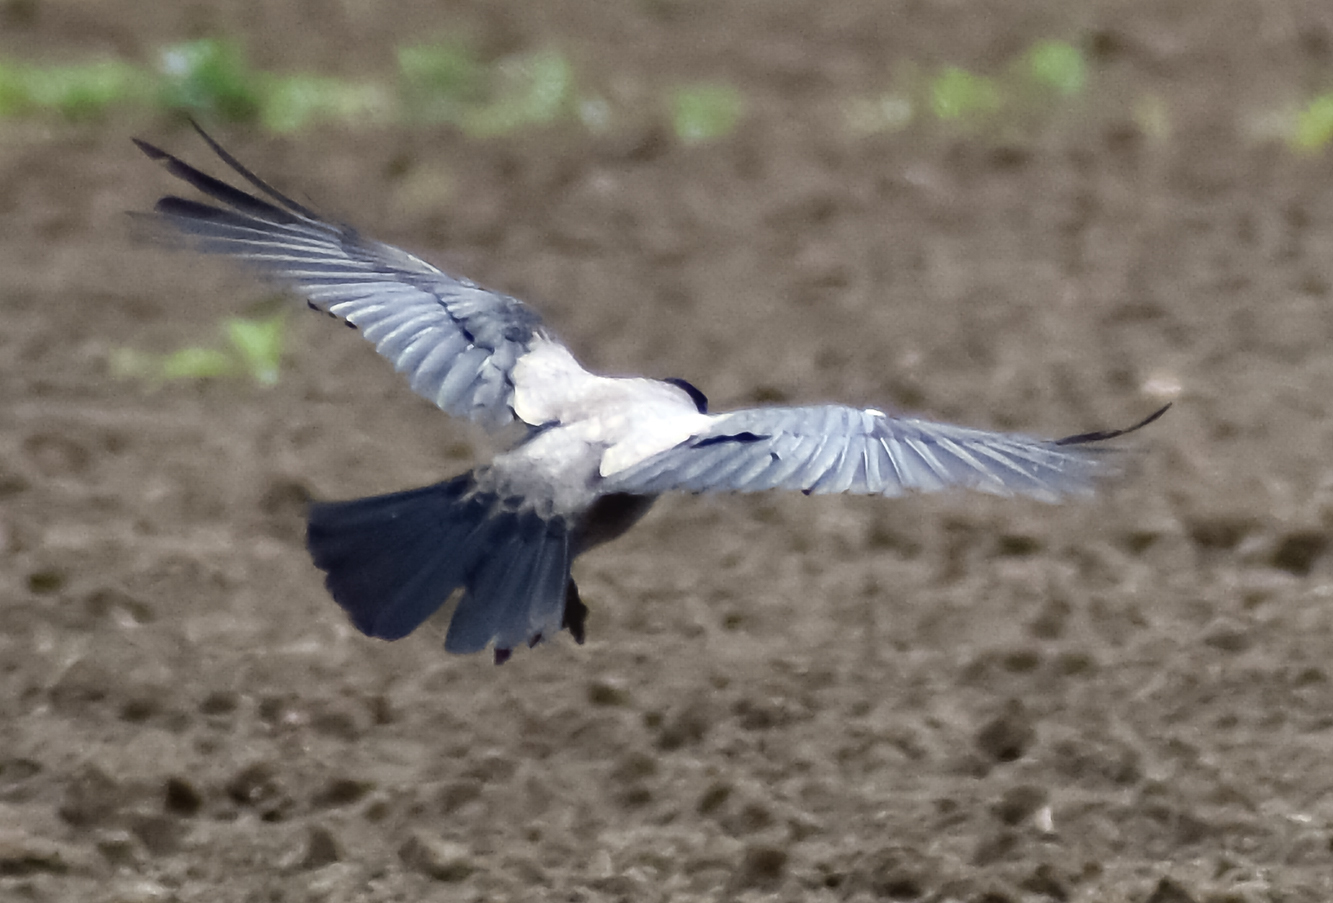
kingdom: Animalia
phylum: Chordata
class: Aves
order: Passeriformes
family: Corvidae
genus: Corvus
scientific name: Corvus cornix
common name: Hooded crow
